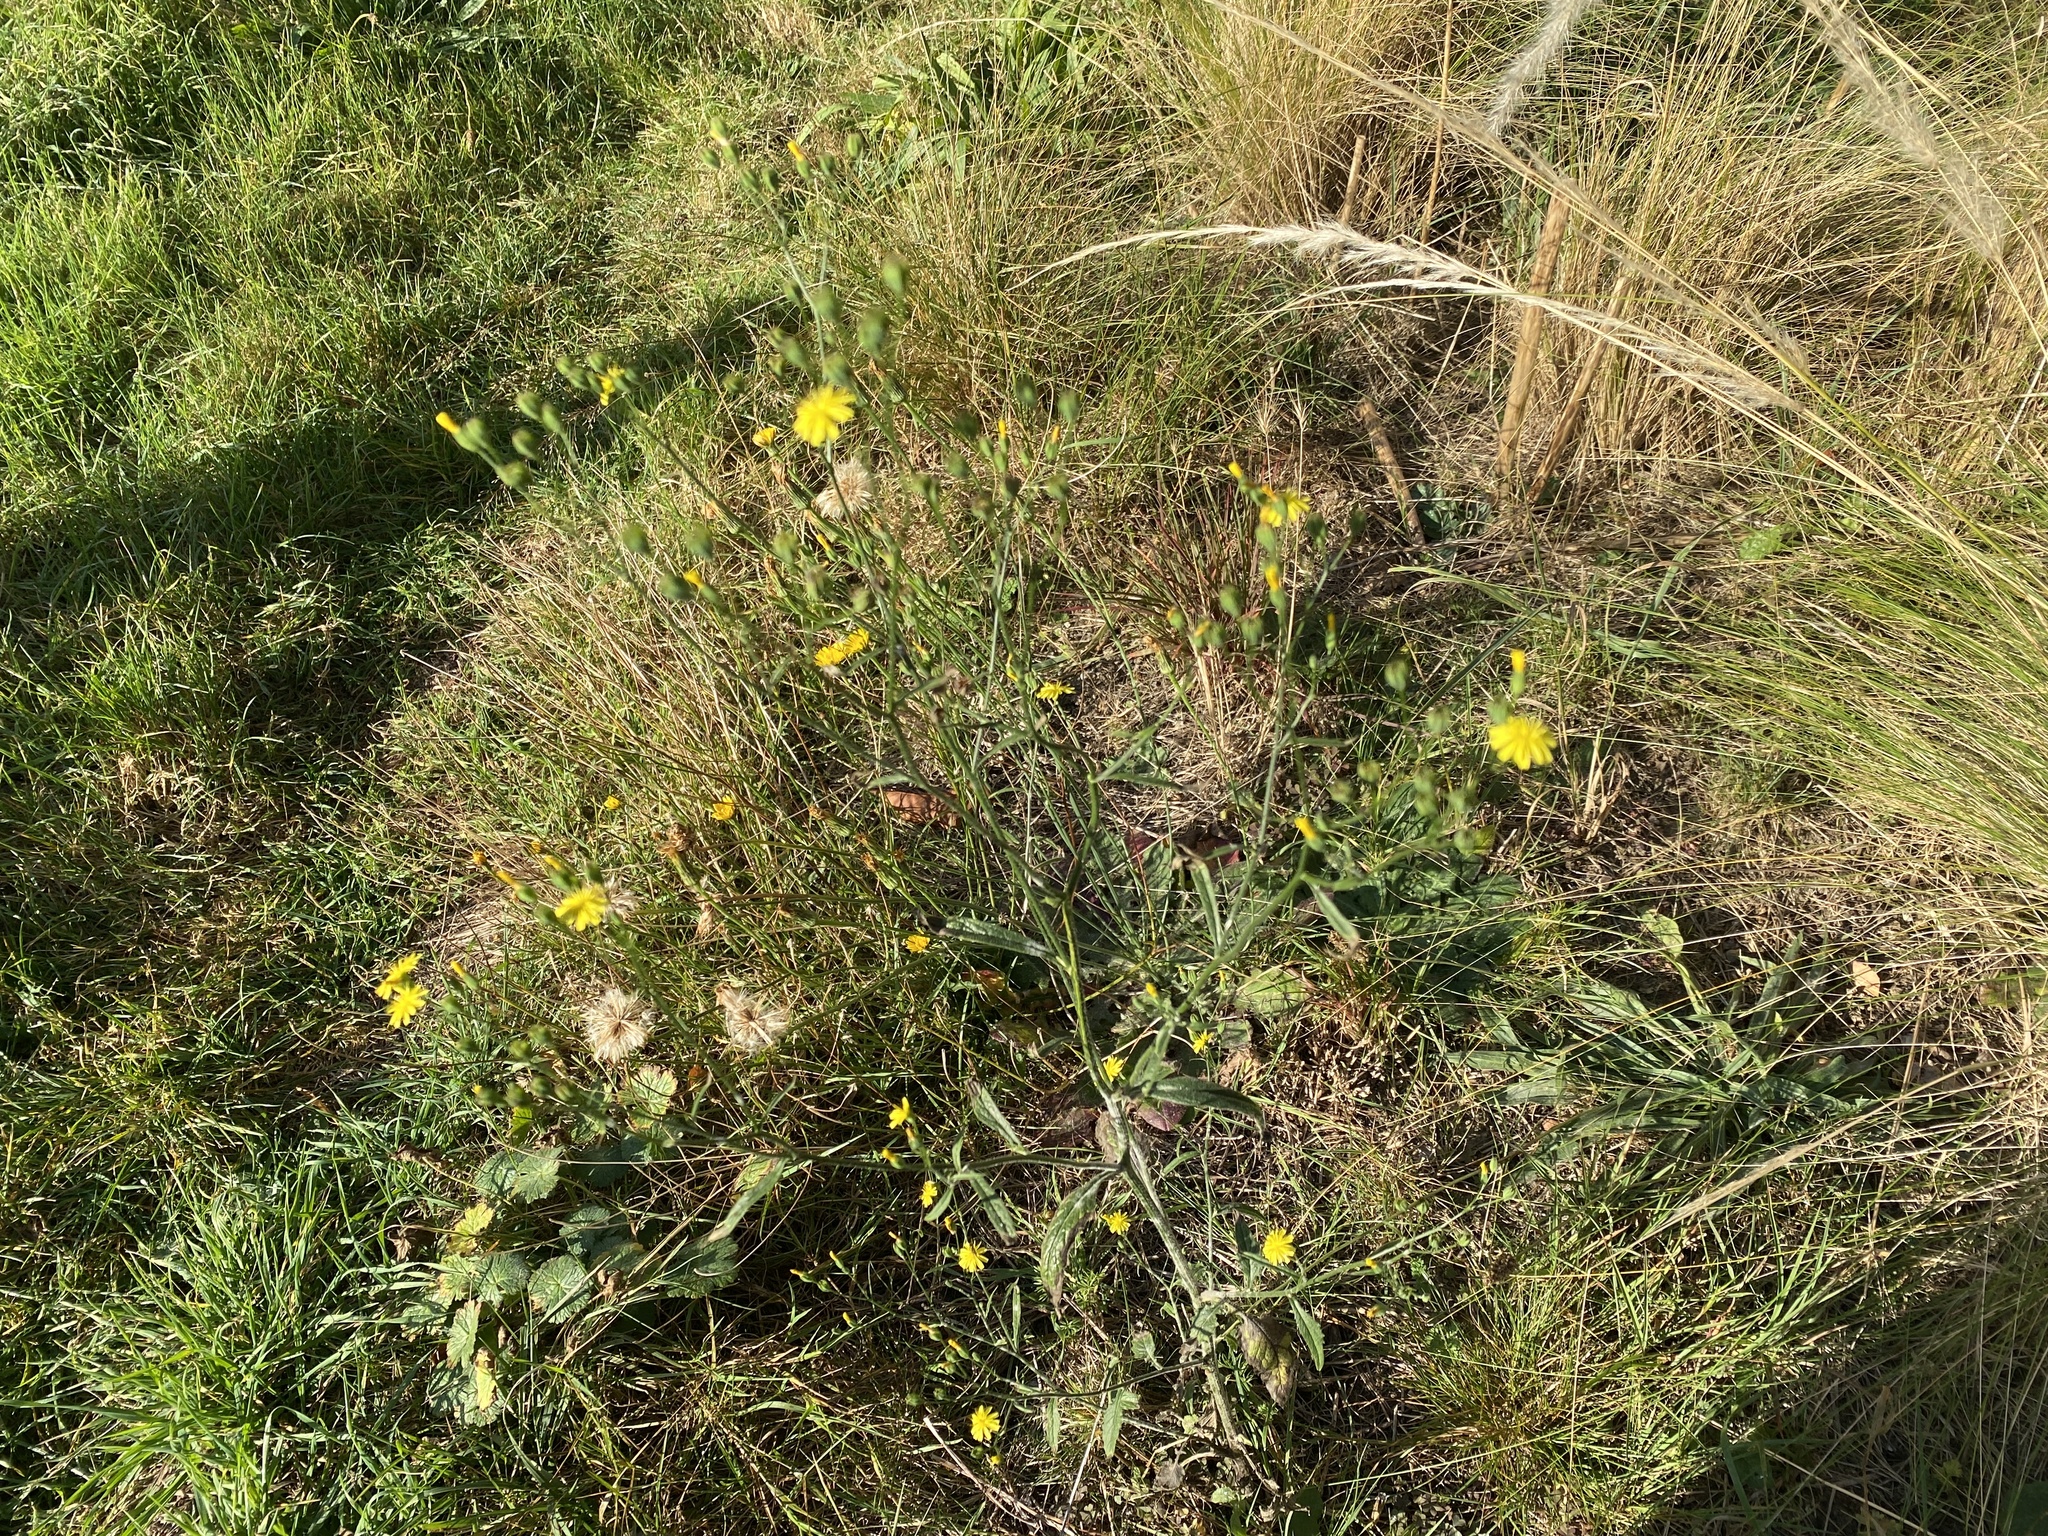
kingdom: Plantae
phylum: Tracheophyta
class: Magnoliopsida
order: Asterales
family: Asteraceae
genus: Lapsana
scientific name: Lapsana communis
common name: Nipplewort
